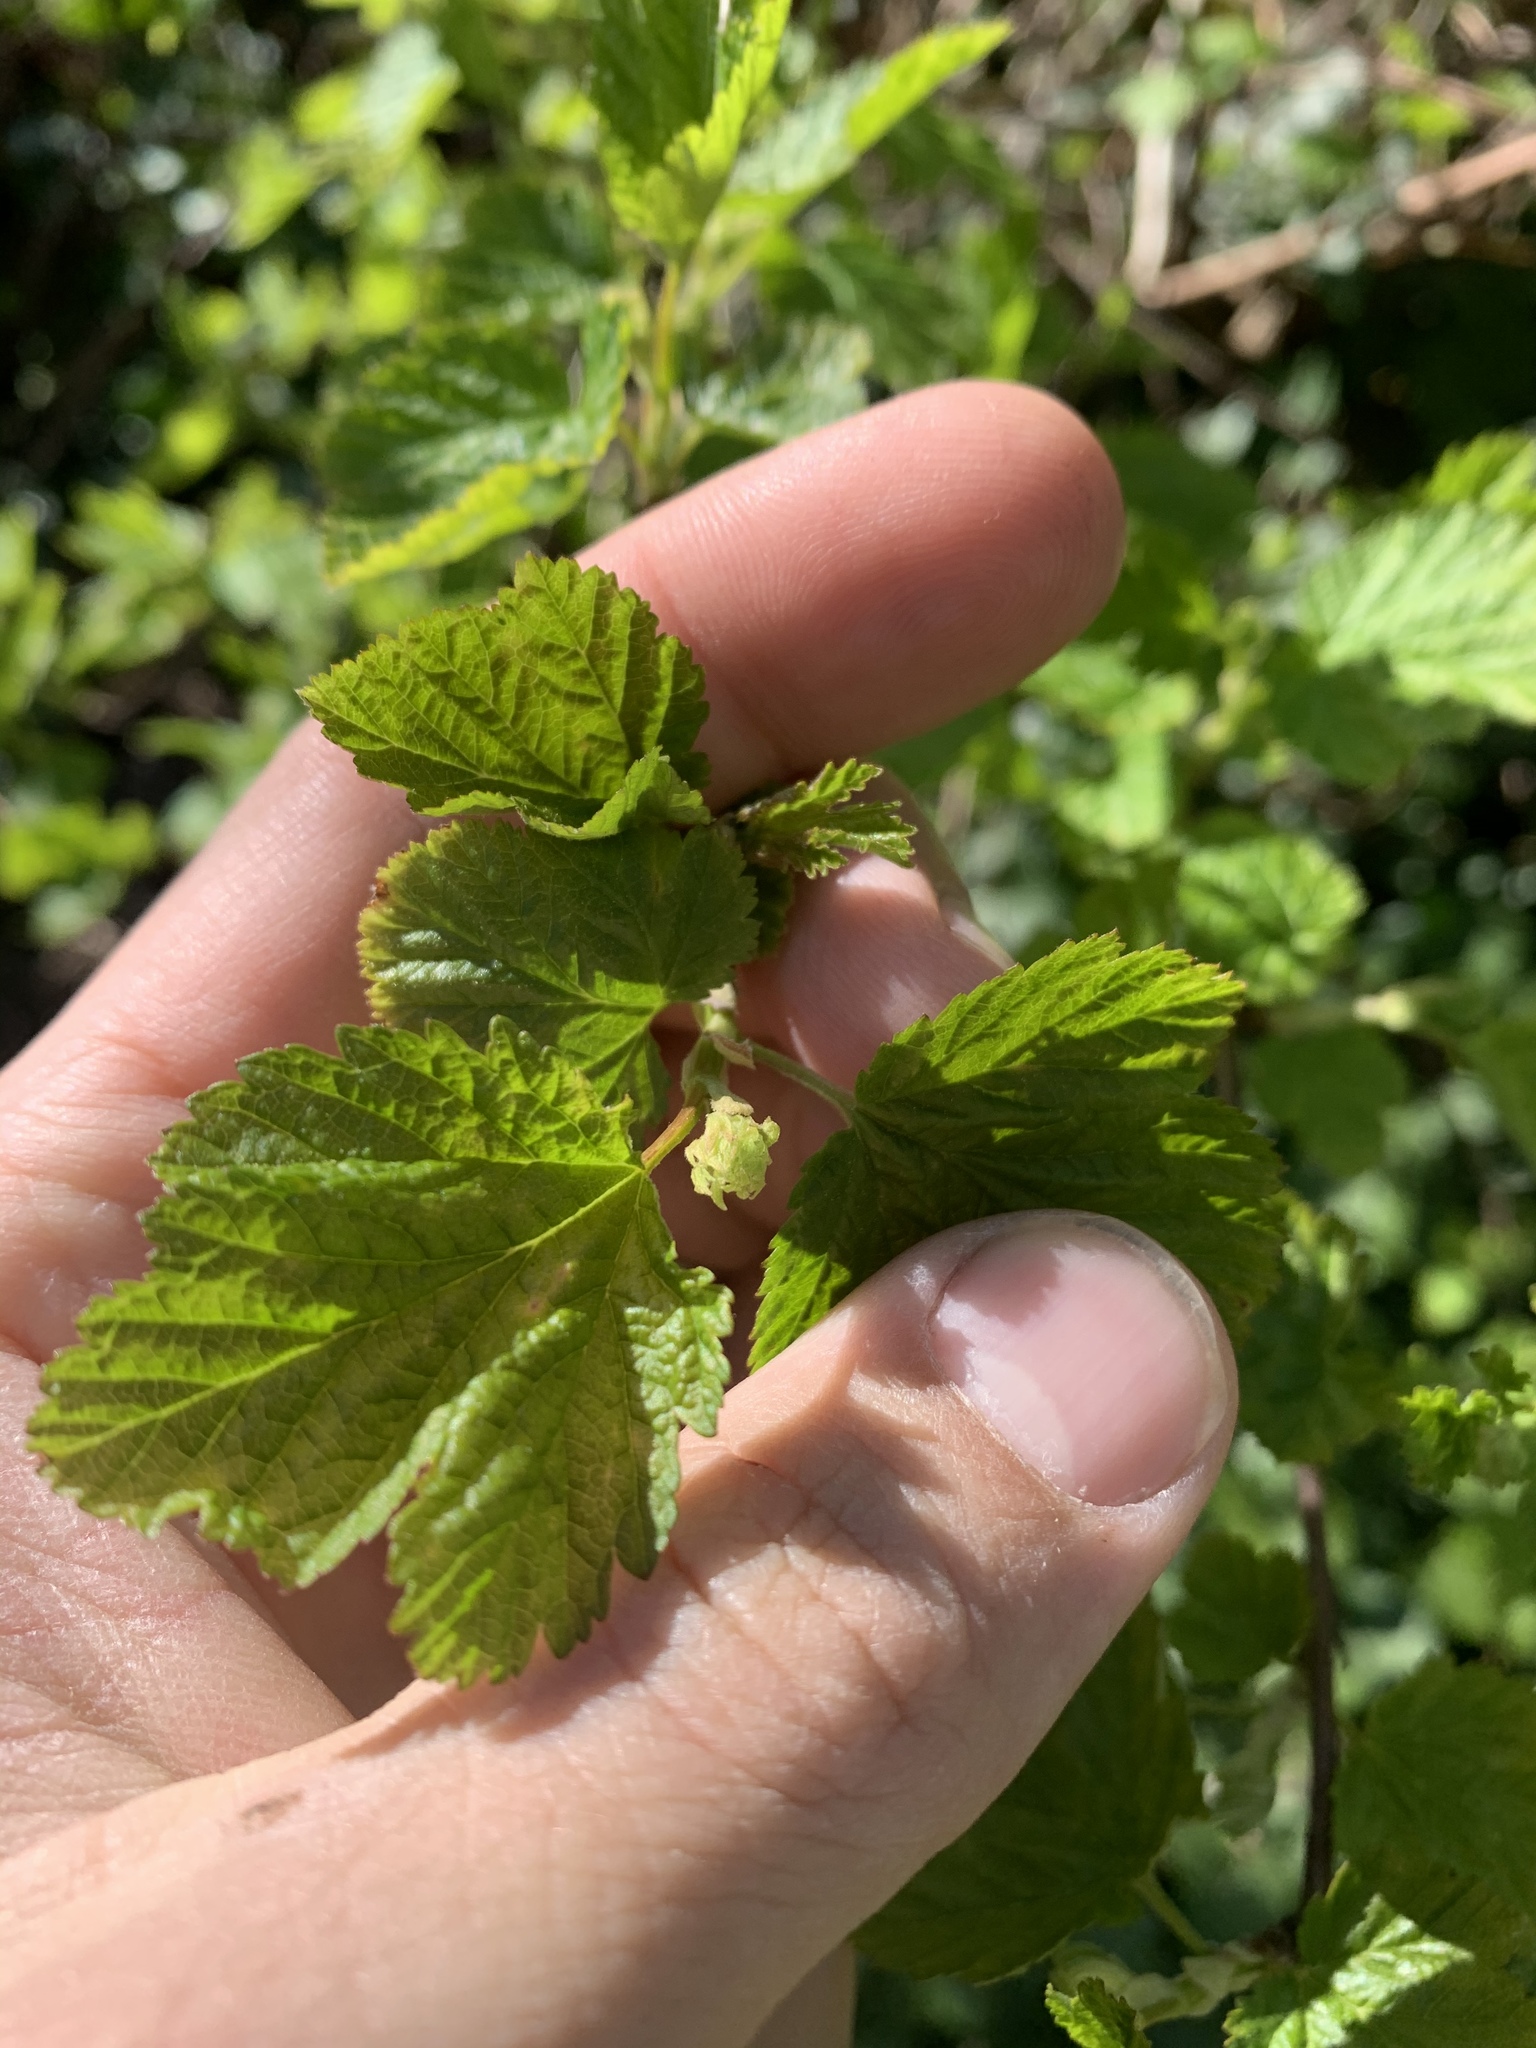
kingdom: Plantae
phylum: Tracheophyta
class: Magnoliopsida
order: Rosales
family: Rosaceae
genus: Physocarpus
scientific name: Physocarpus capitatus
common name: Pacific ninebark
